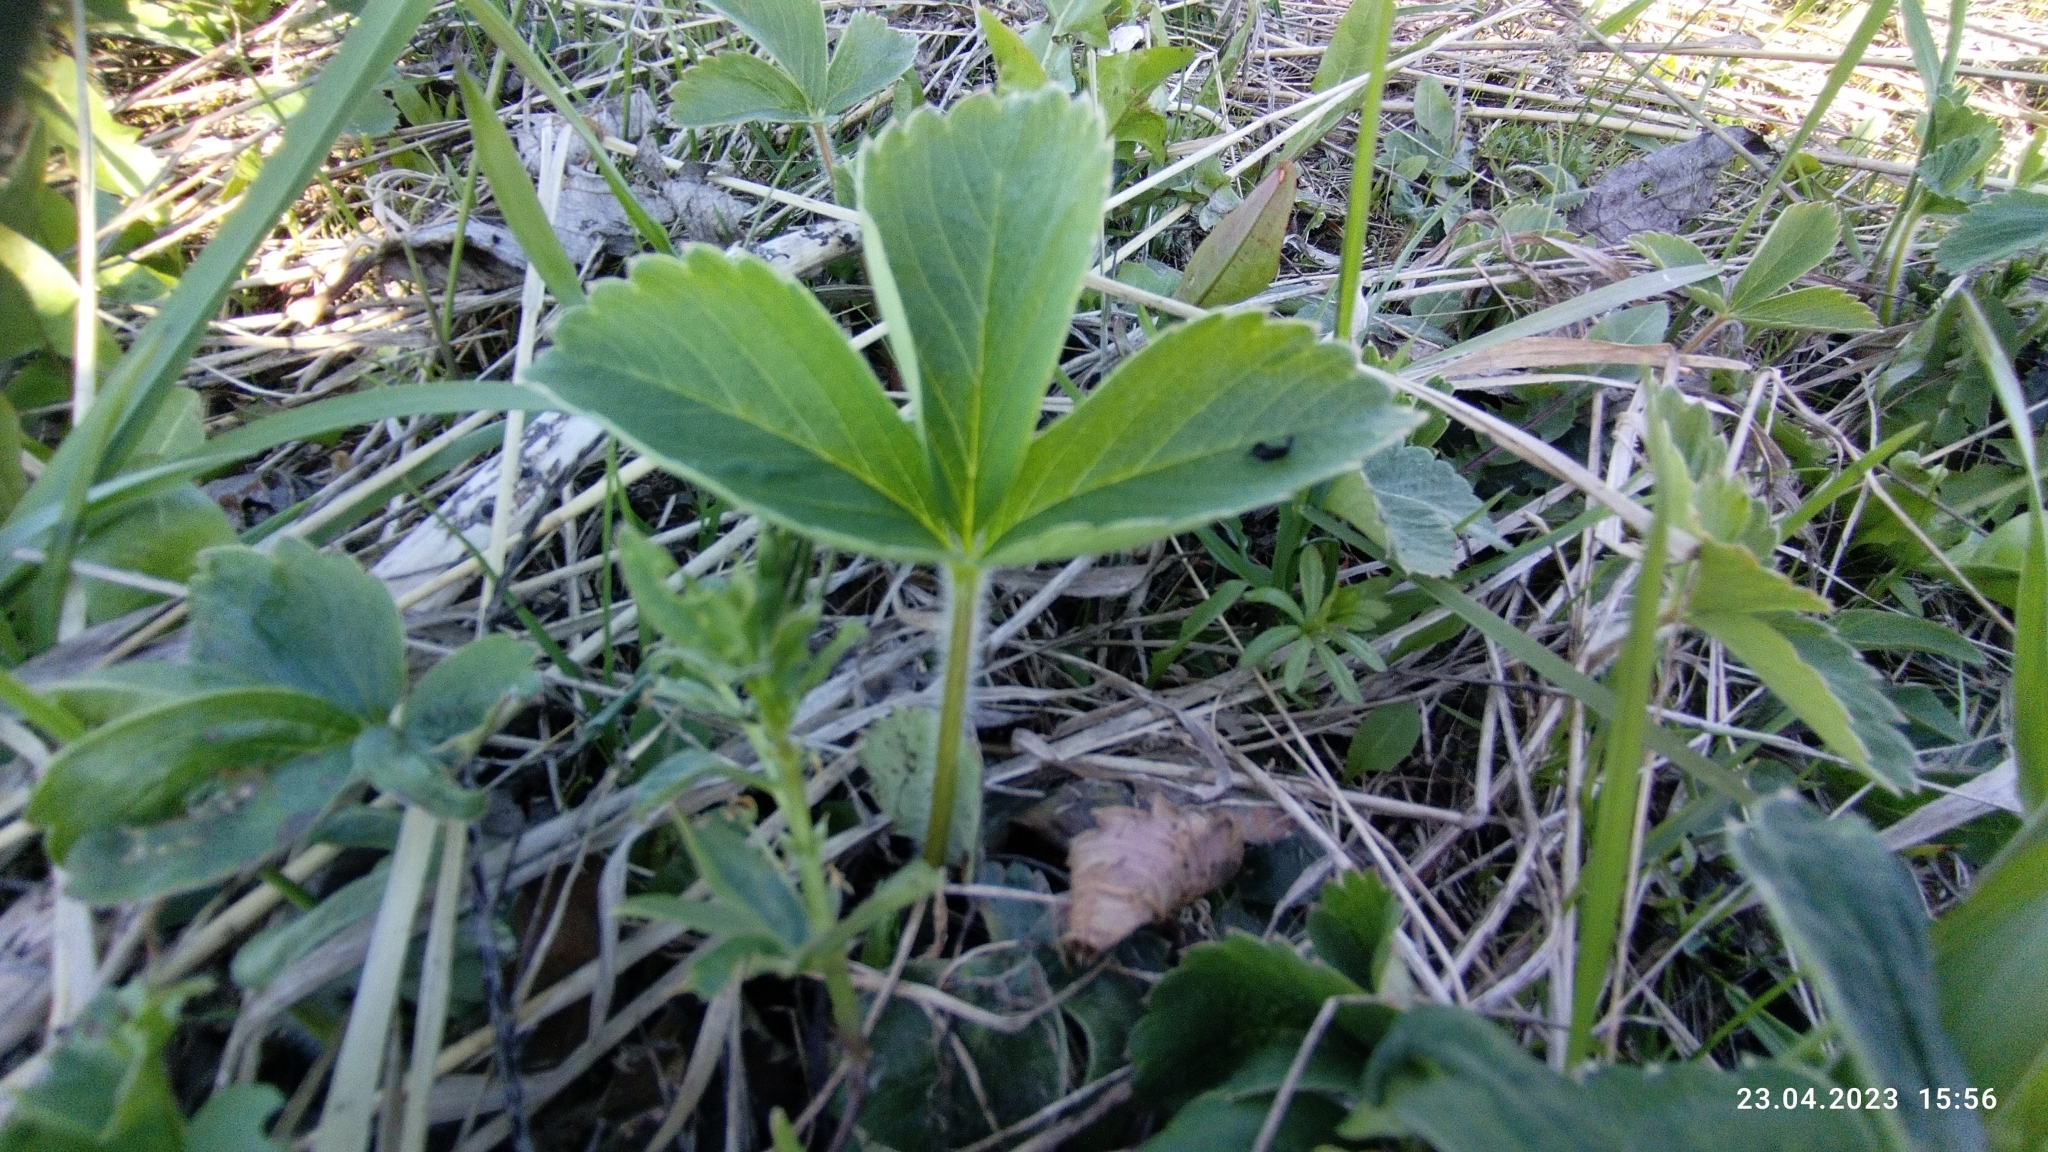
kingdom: Plantae
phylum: Tracheophyta
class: Magnoliopsida
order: Rosales
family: Rosaceae
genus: Fragaria
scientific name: Fragaria viridis
